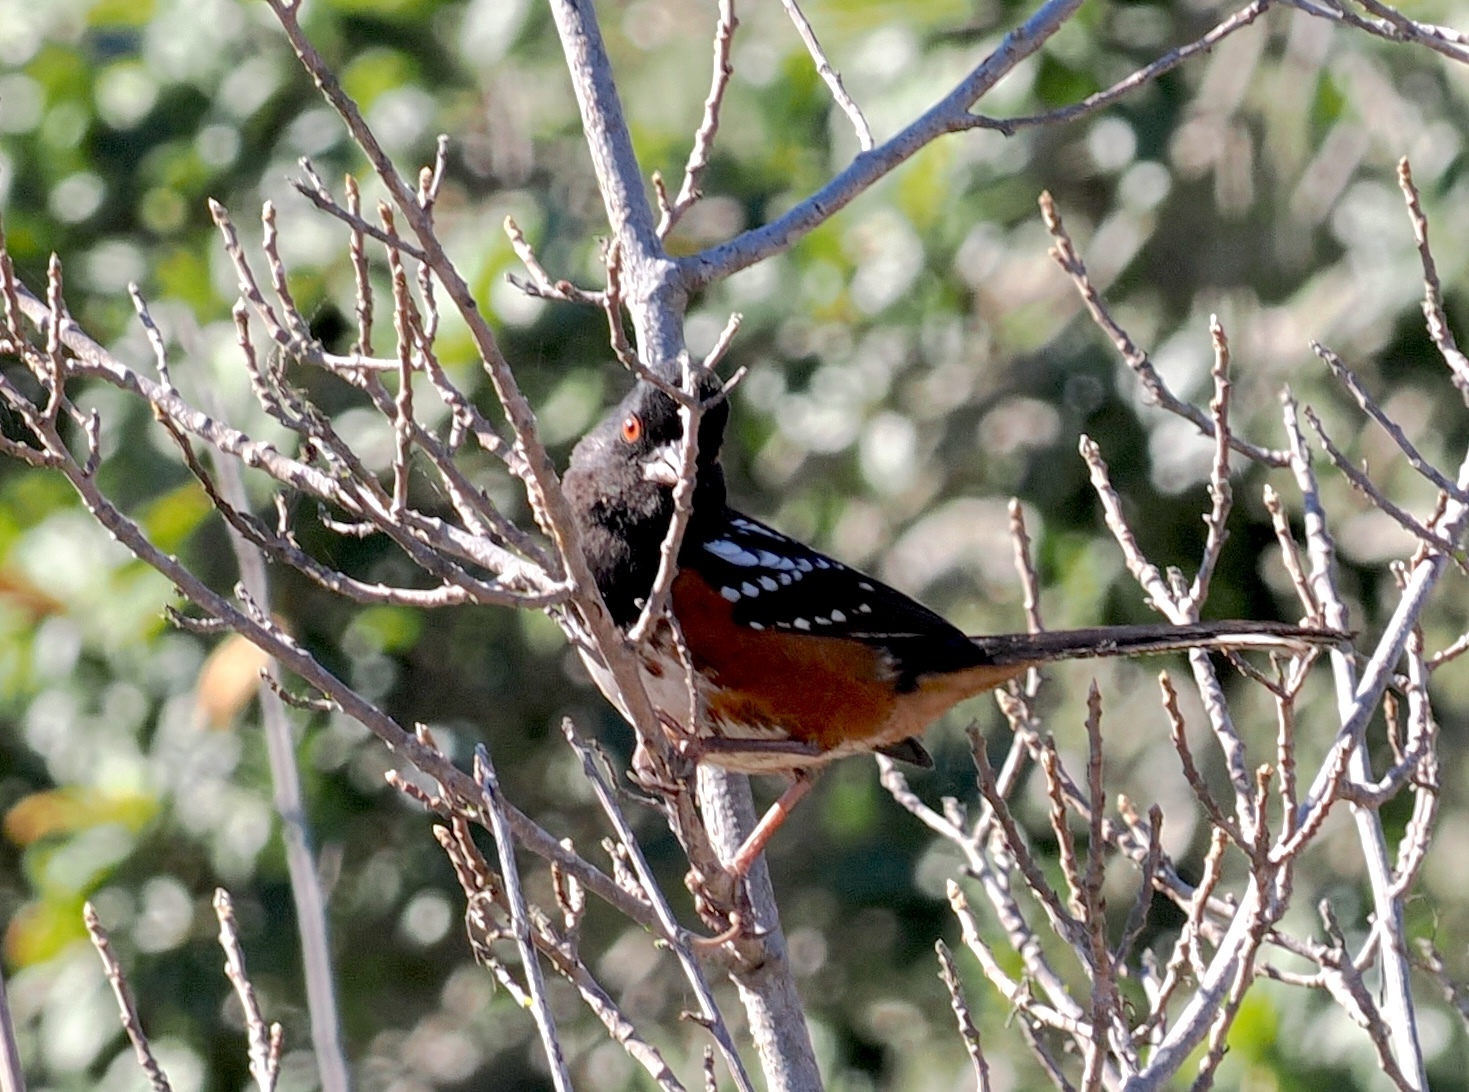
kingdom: Animalia
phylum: Chordata
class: Aves
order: Passeriformes
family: Passerellidae
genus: Pipilo
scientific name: Pipilo maculatus
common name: Spotted towhee
